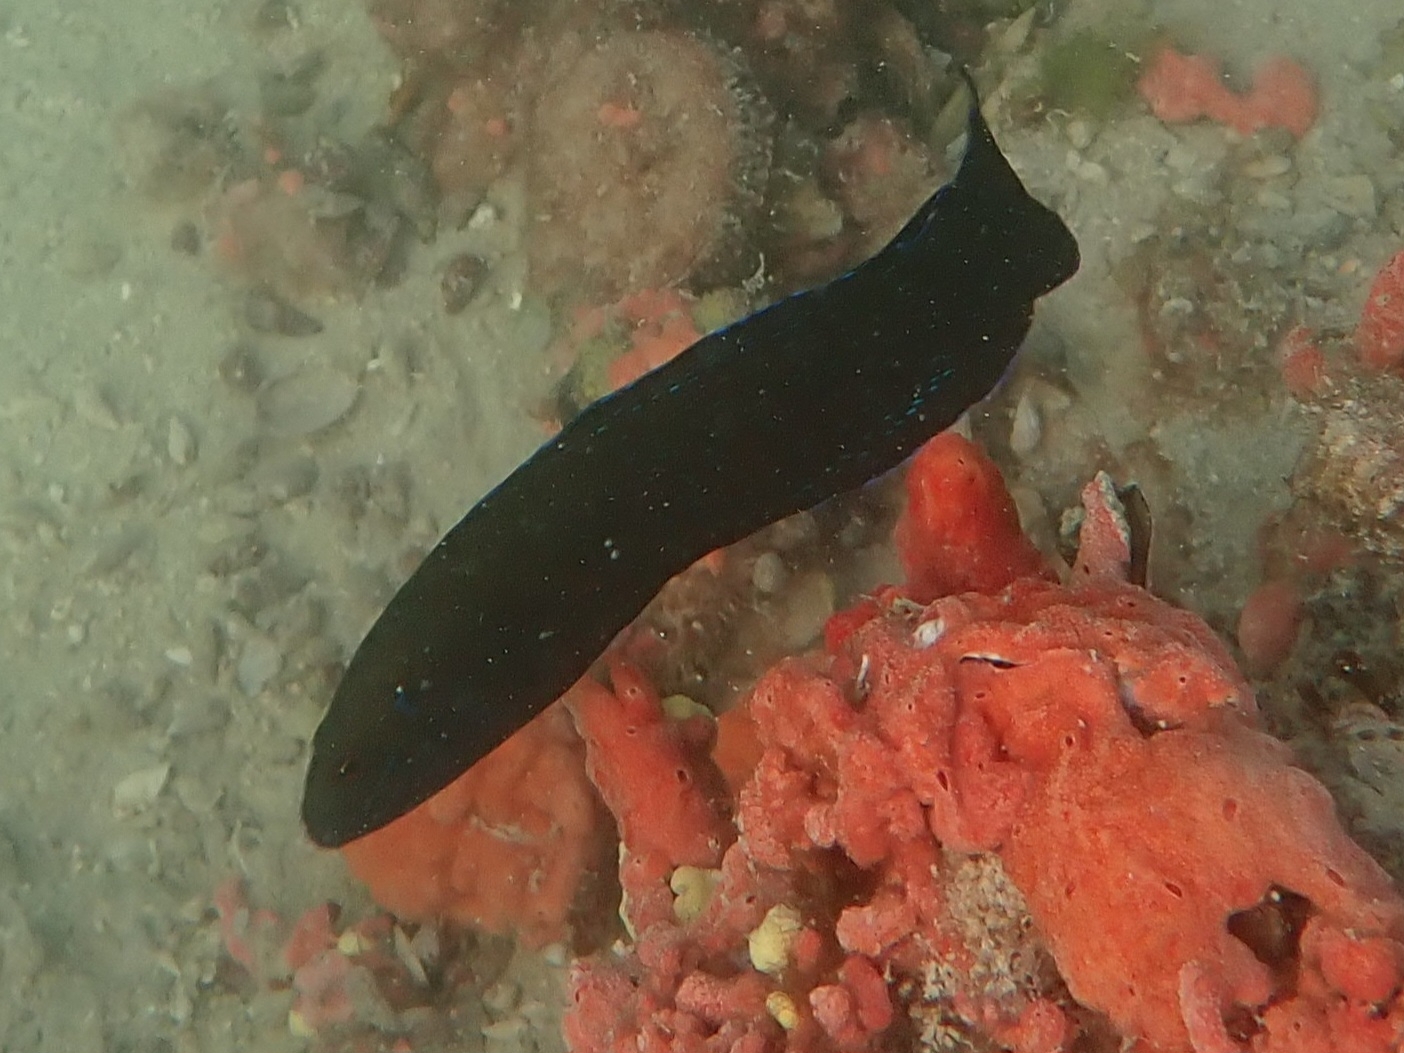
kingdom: Animalia
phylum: Chordata
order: Perciformes
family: Pseudochromidae
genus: Pseudochromis
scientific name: Pseudochromis persicus
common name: Bluespotted dottyback
